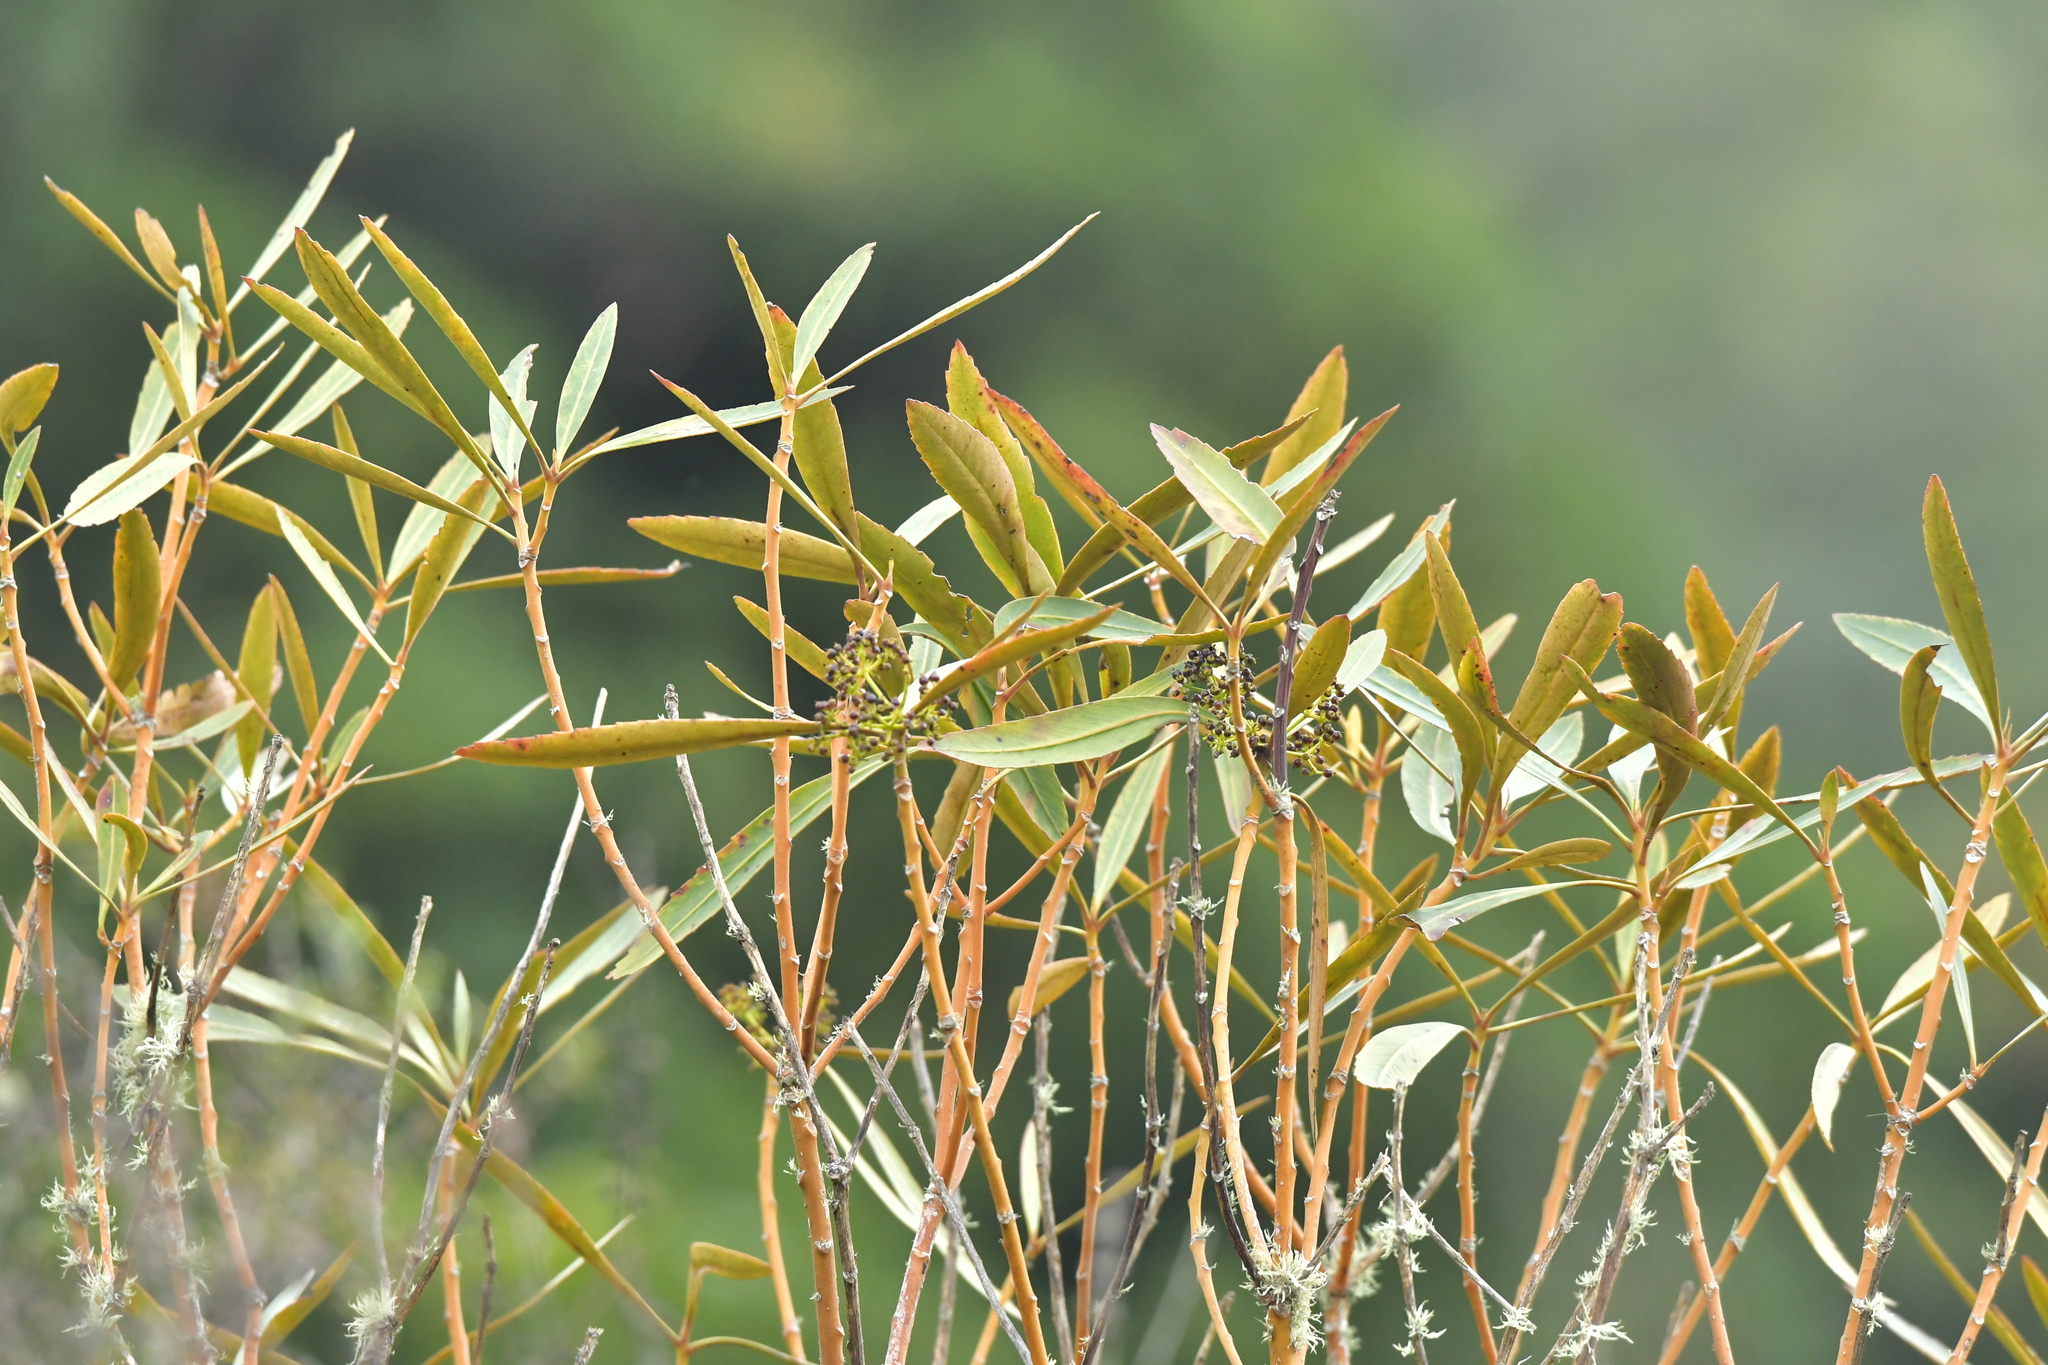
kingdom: Plantae
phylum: Tracheophyta
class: Magnoliopsida
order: Apiales
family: Araliaceae
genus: Pseudopanax
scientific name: Pseudopanax crassifolius
